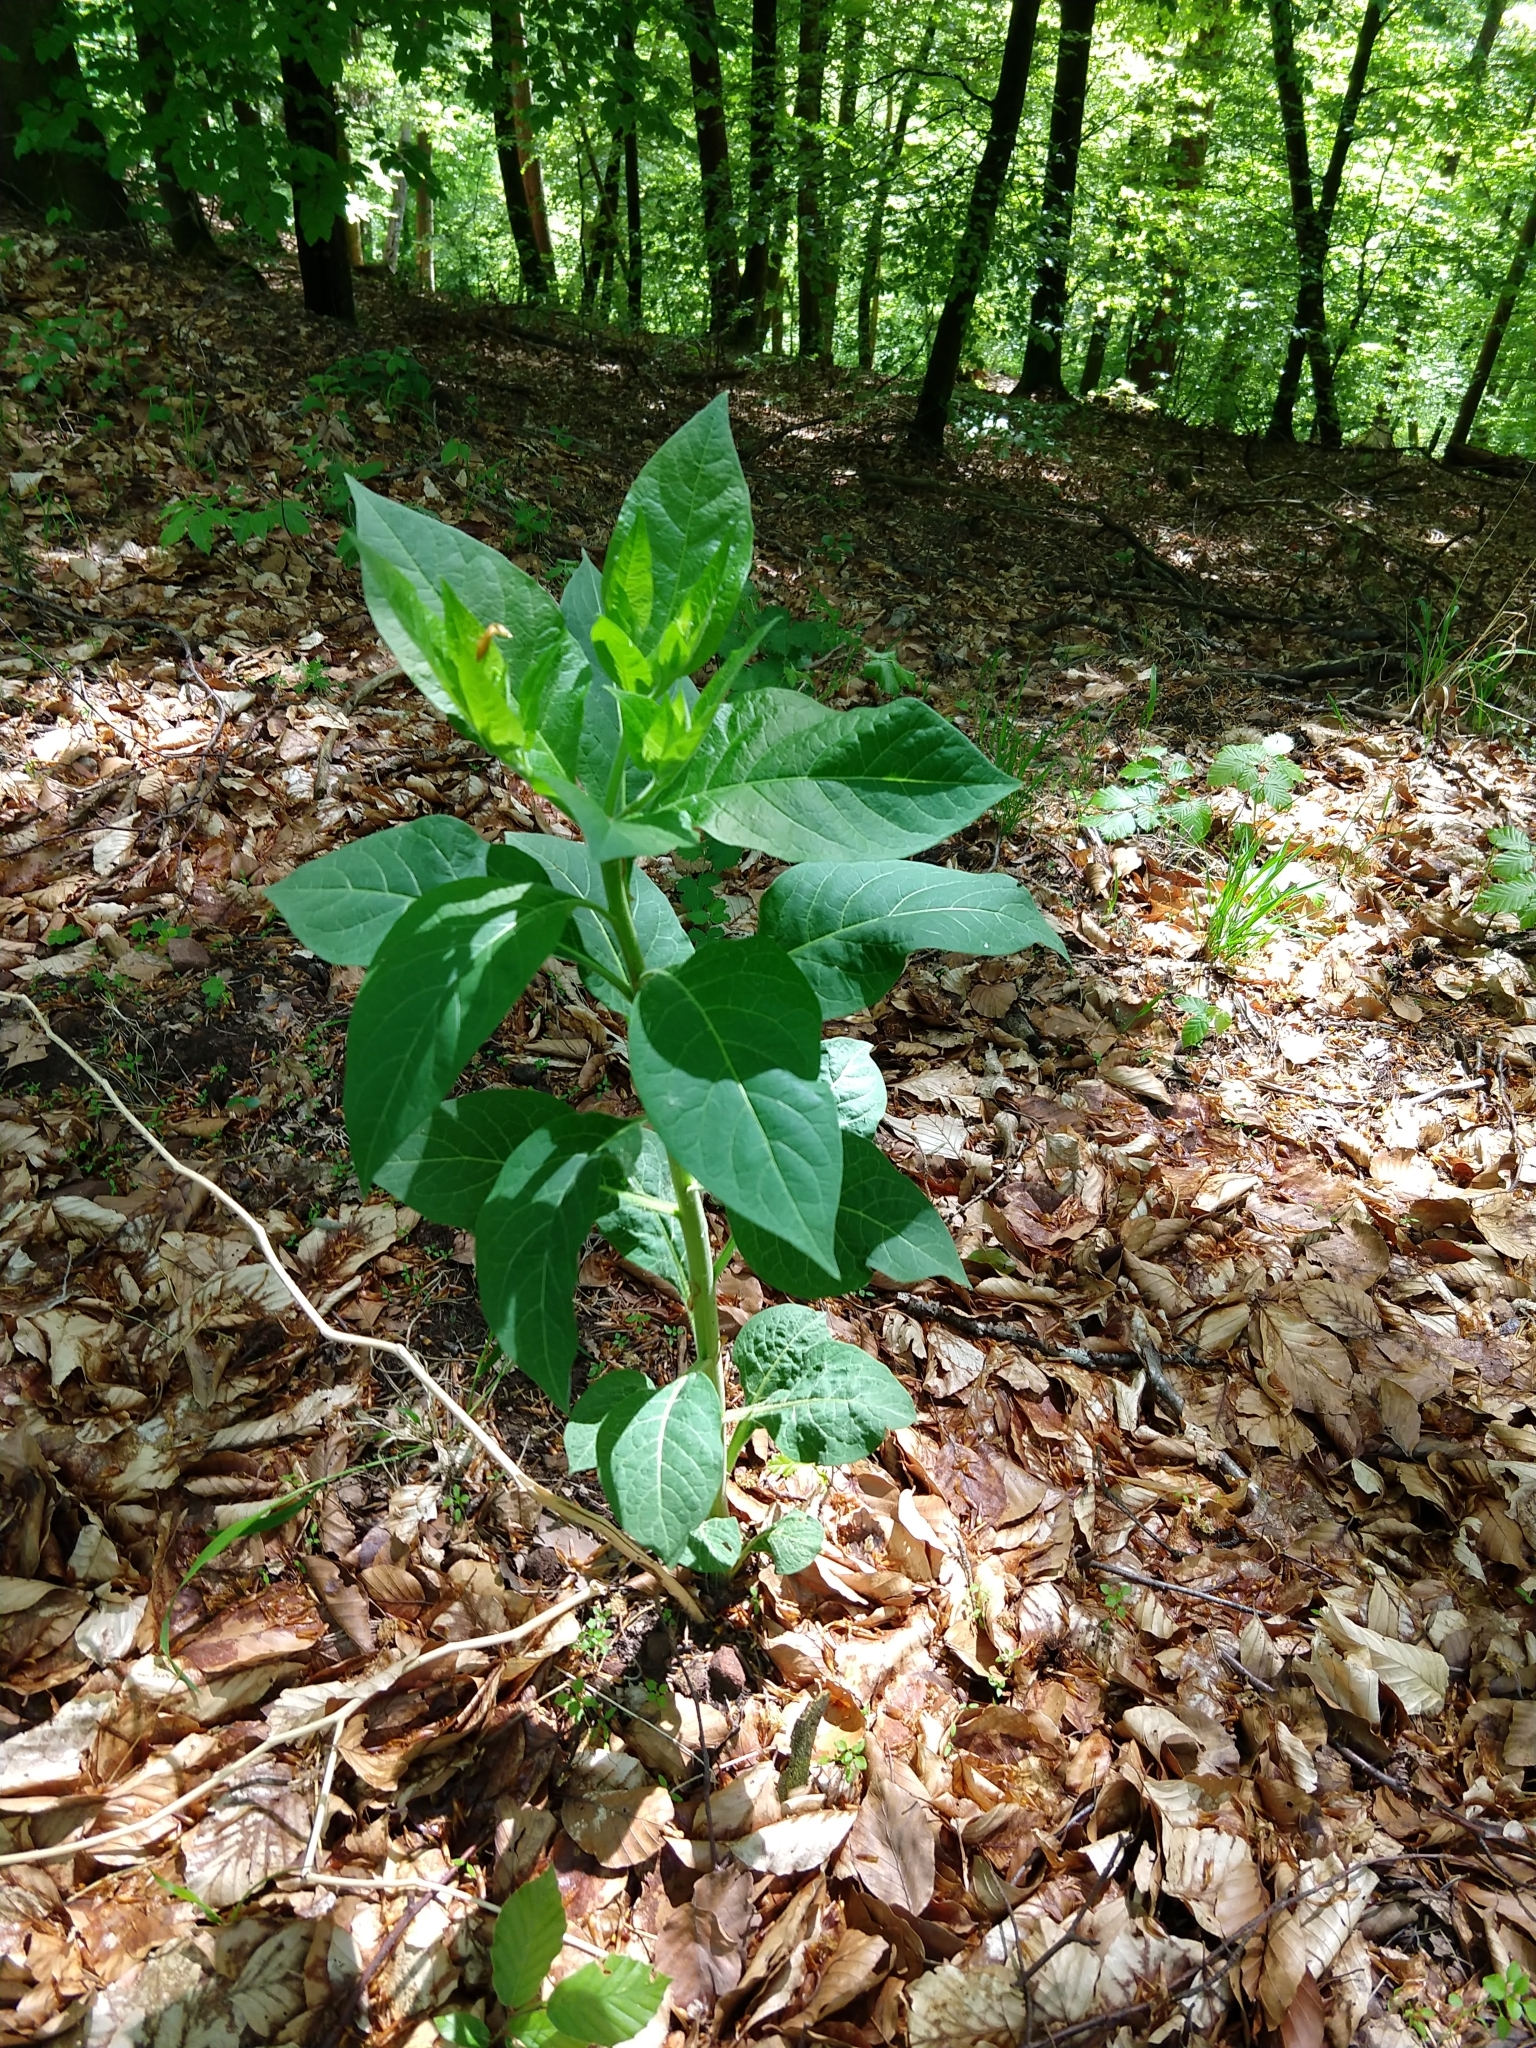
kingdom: Plantae
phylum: Tracheophyta
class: Magnoliopsida
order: Solanales
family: Solanaceae
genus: Atropa
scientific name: Atropa belladonna
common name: Deadly nightshade
